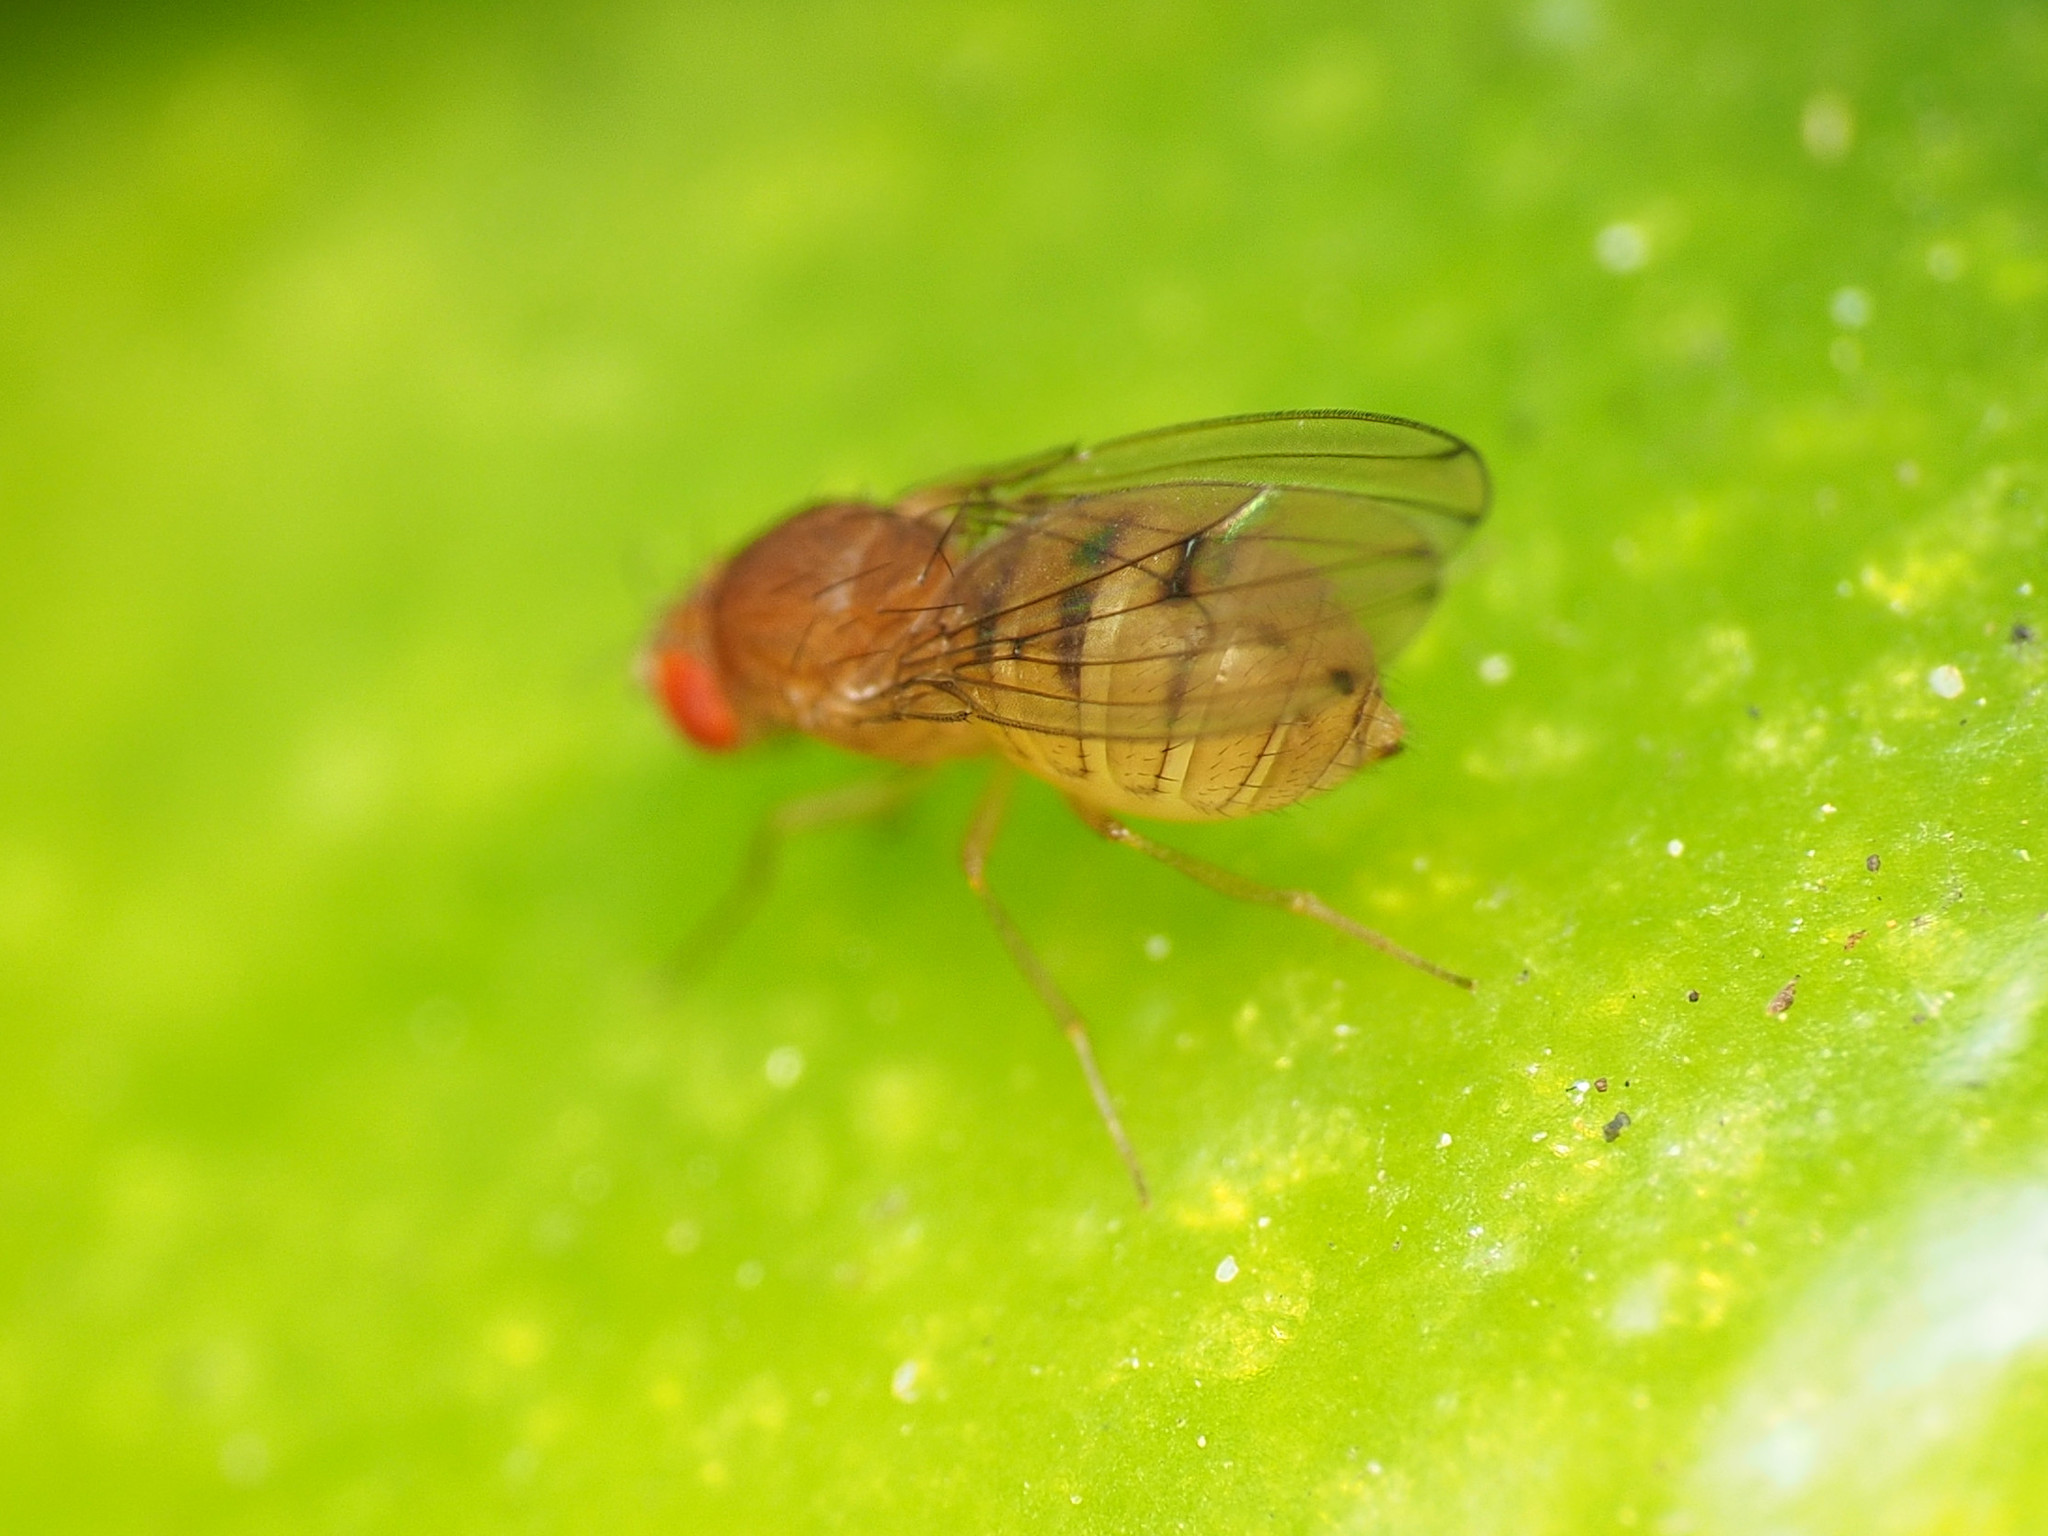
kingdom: Animalia
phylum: Arthropoda
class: Insecta
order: Diptera
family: Drosophilidae
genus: Drosophila
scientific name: Drosophila tripunctata
